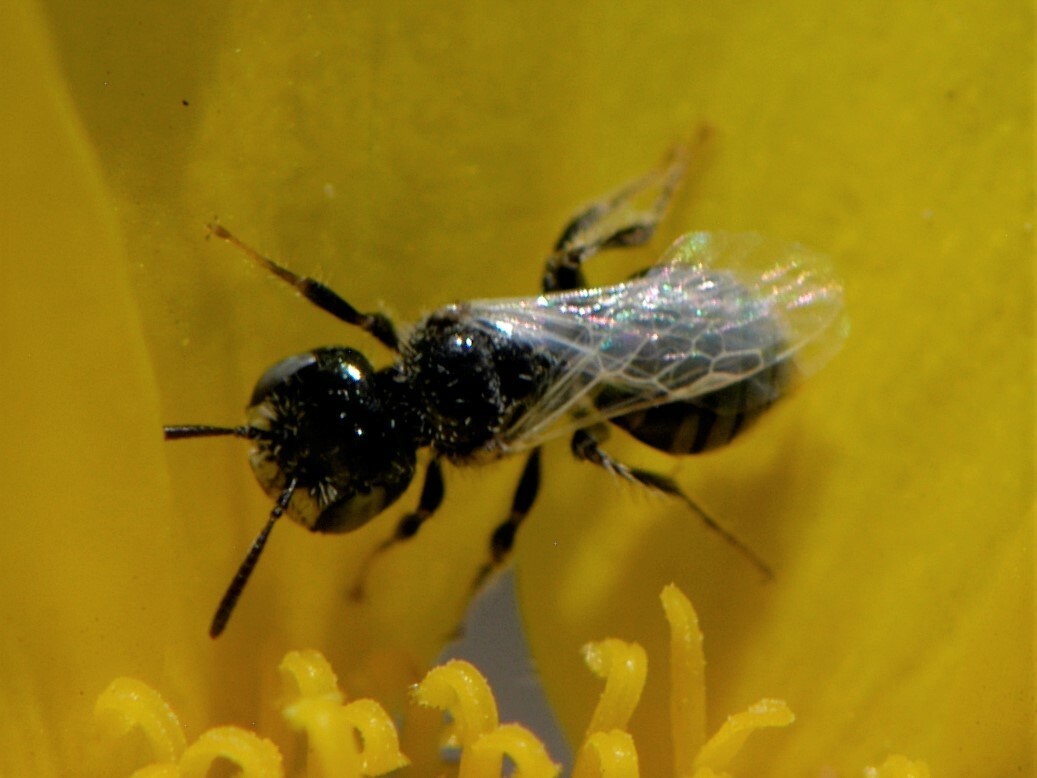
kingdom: Animalia
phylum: Arthropoda
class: Insecta
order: Hymenoptera
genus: Pentaperdita
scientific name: Pentaperdita
